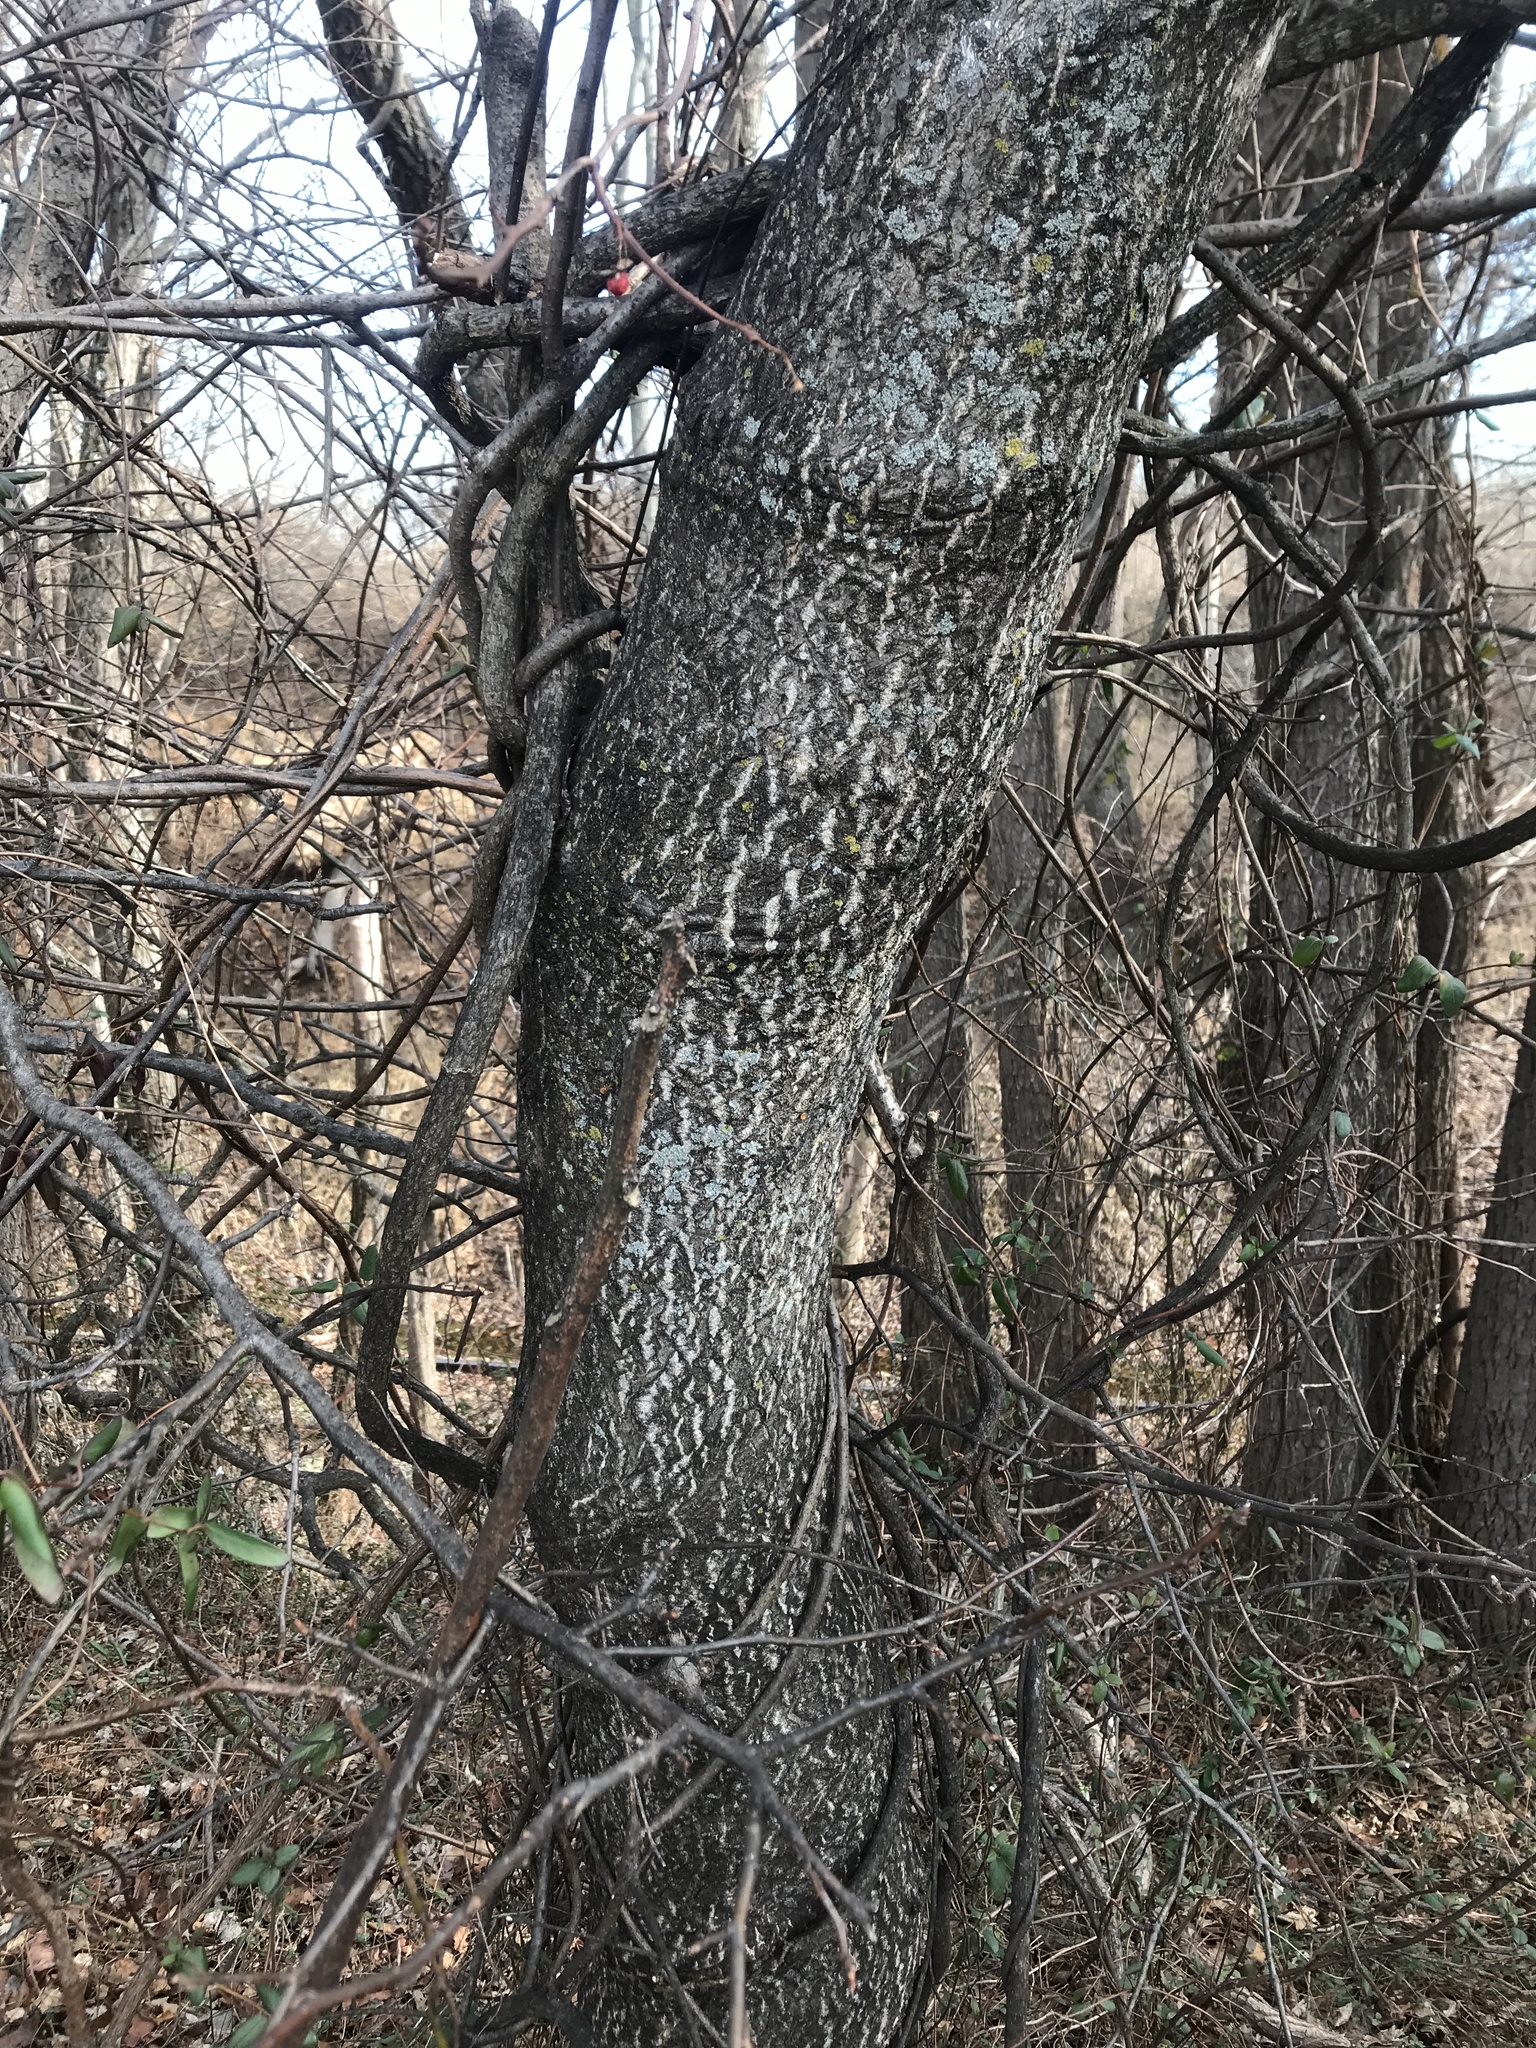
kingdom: Plantae
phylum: Tracheophyta
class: Magnoliopsida
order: Sapindales
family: Simaroubaceae
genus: Ailanthus
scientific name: Ailanthus altissima
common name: Tree-of-heaven
